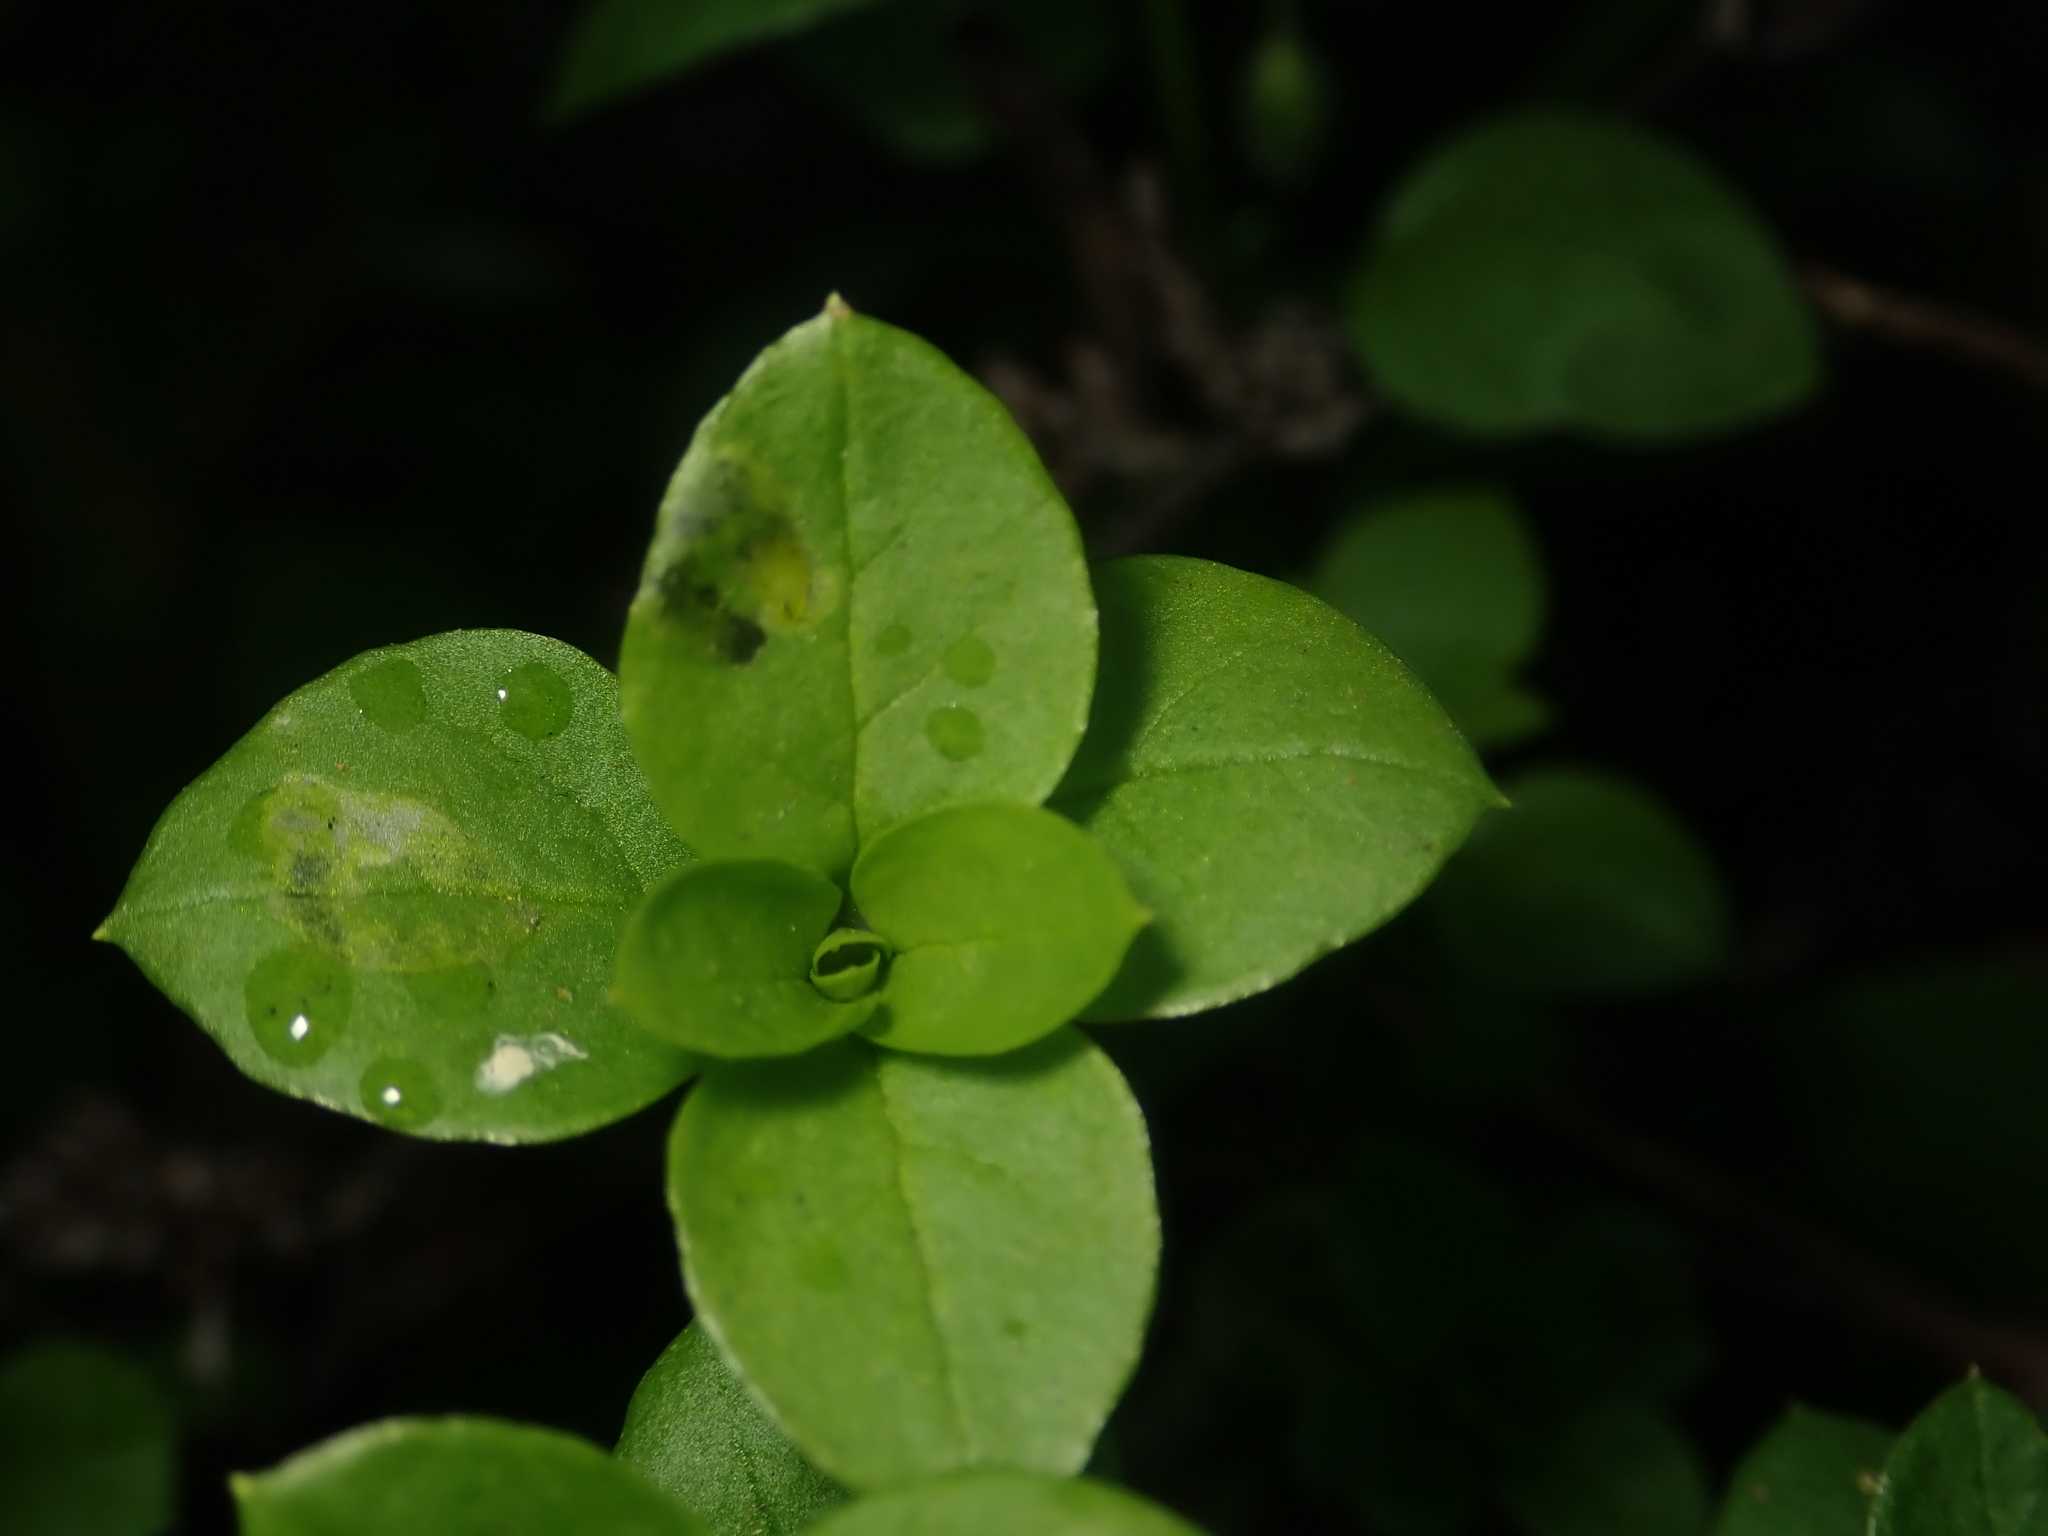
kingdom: Plantae
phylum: Tracheophyta
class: Magnoliopsida
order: Caryophyllales
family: Caryophyllaceae
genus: Stellaria
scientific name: Stellaria media
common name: Common chickweed
